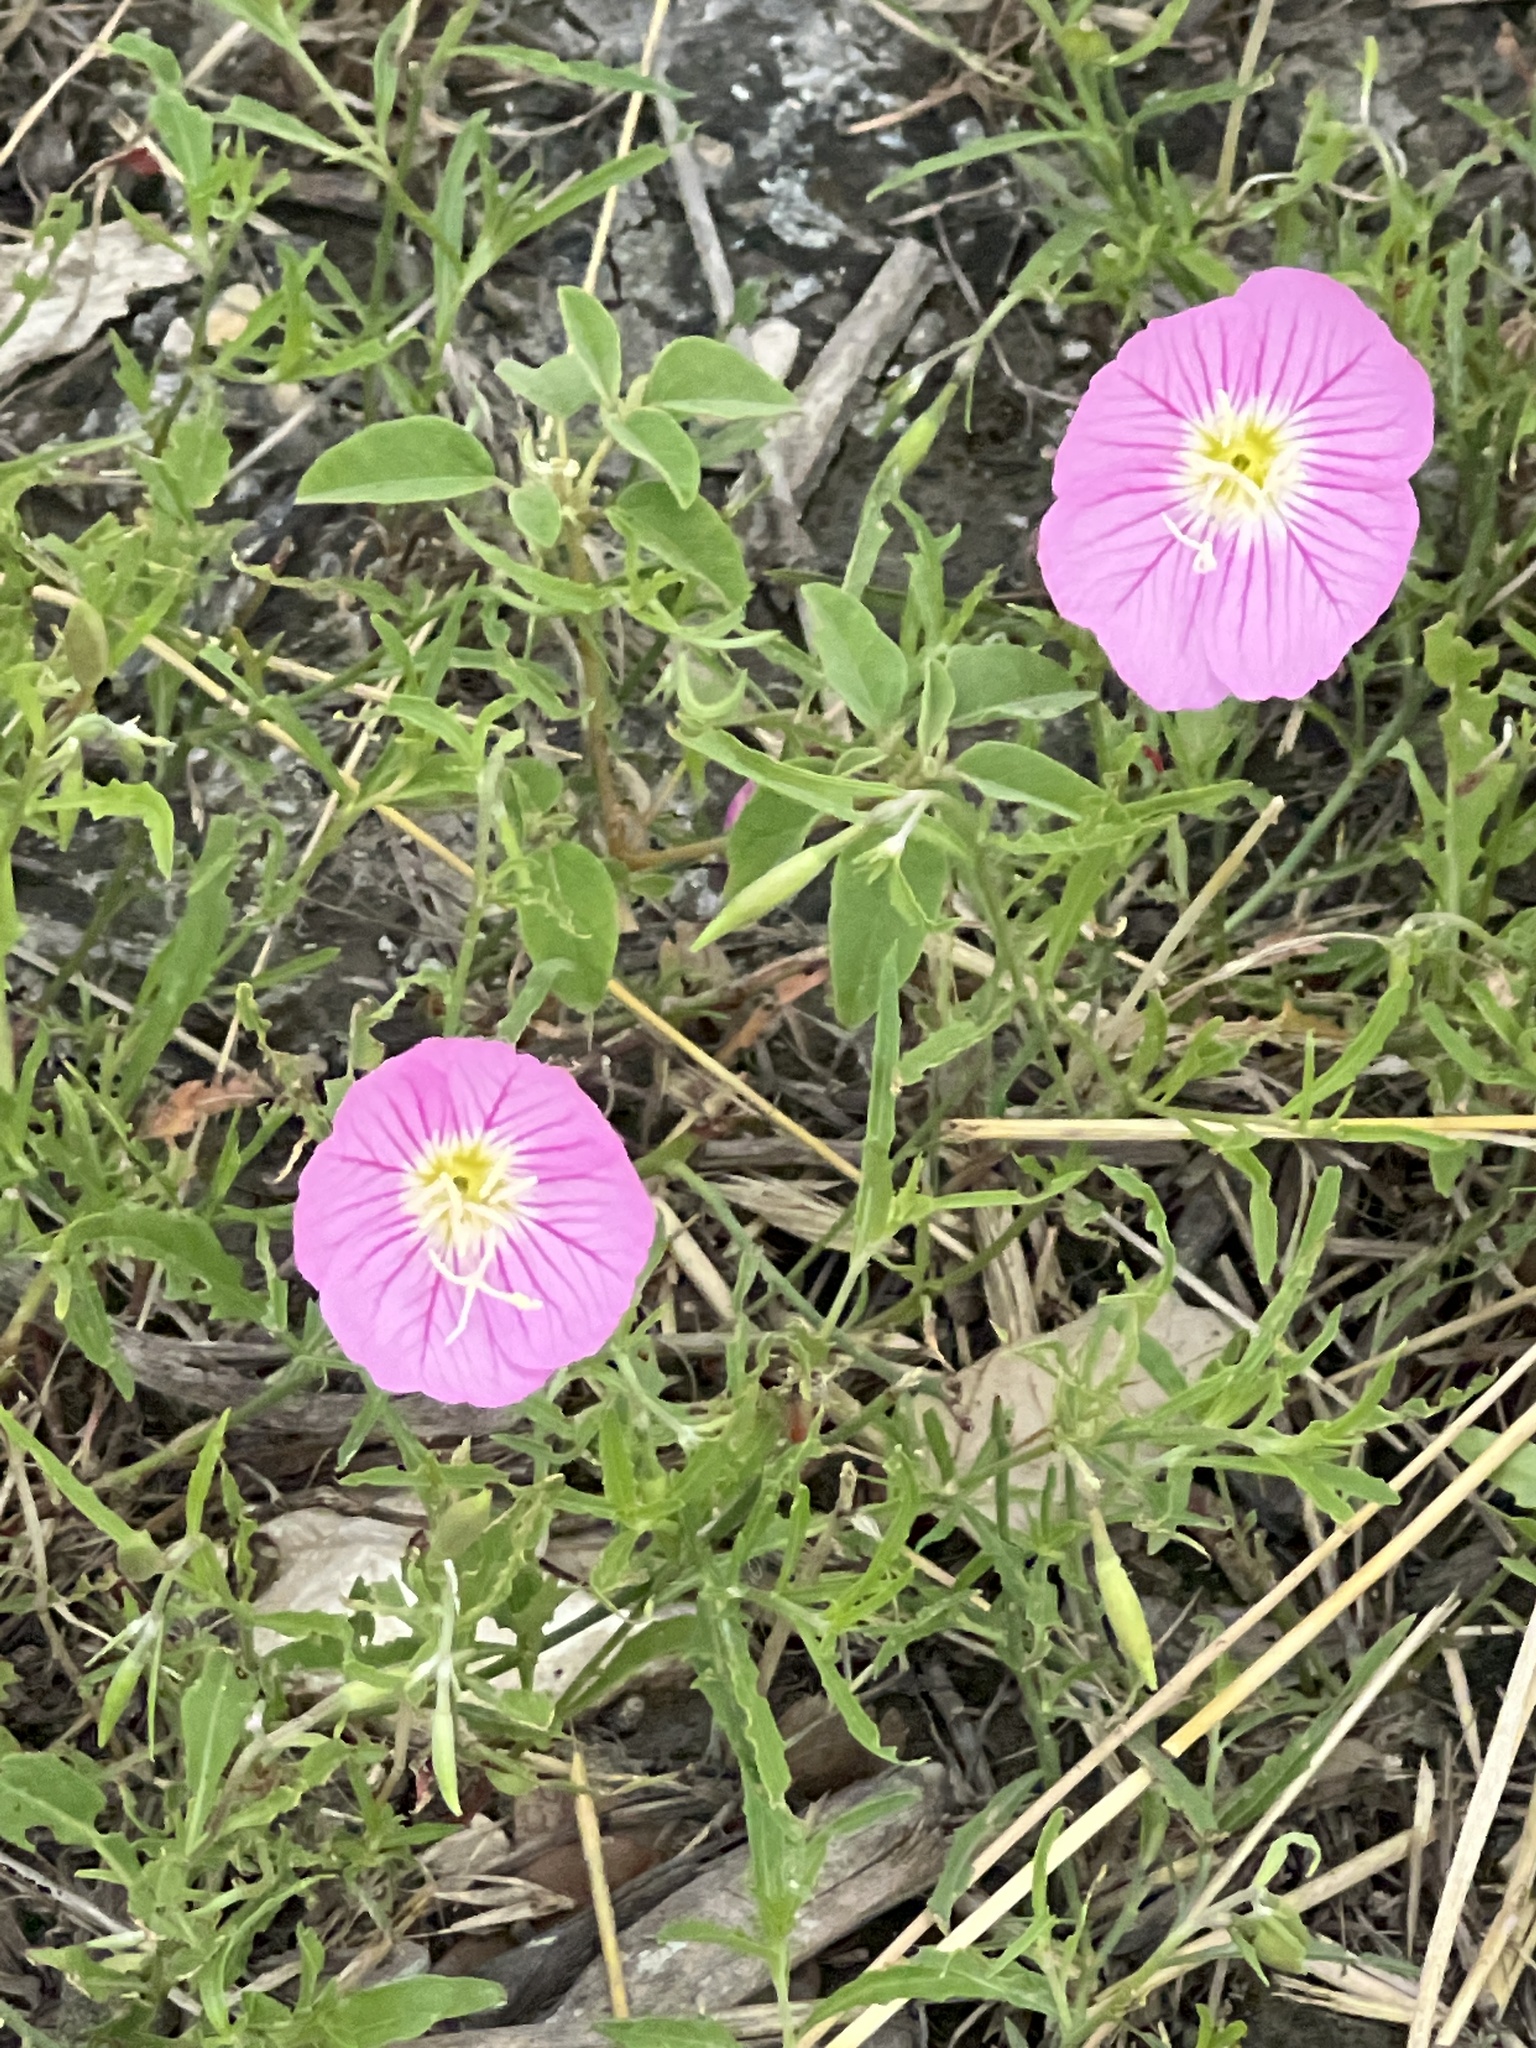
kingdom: Plantae
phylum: Tracheophyta
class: Magnoliopsida
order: Myrtales
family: Onagraceae
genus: Oenothera
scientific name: Oenothera speciosa
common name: White evening-primrose
